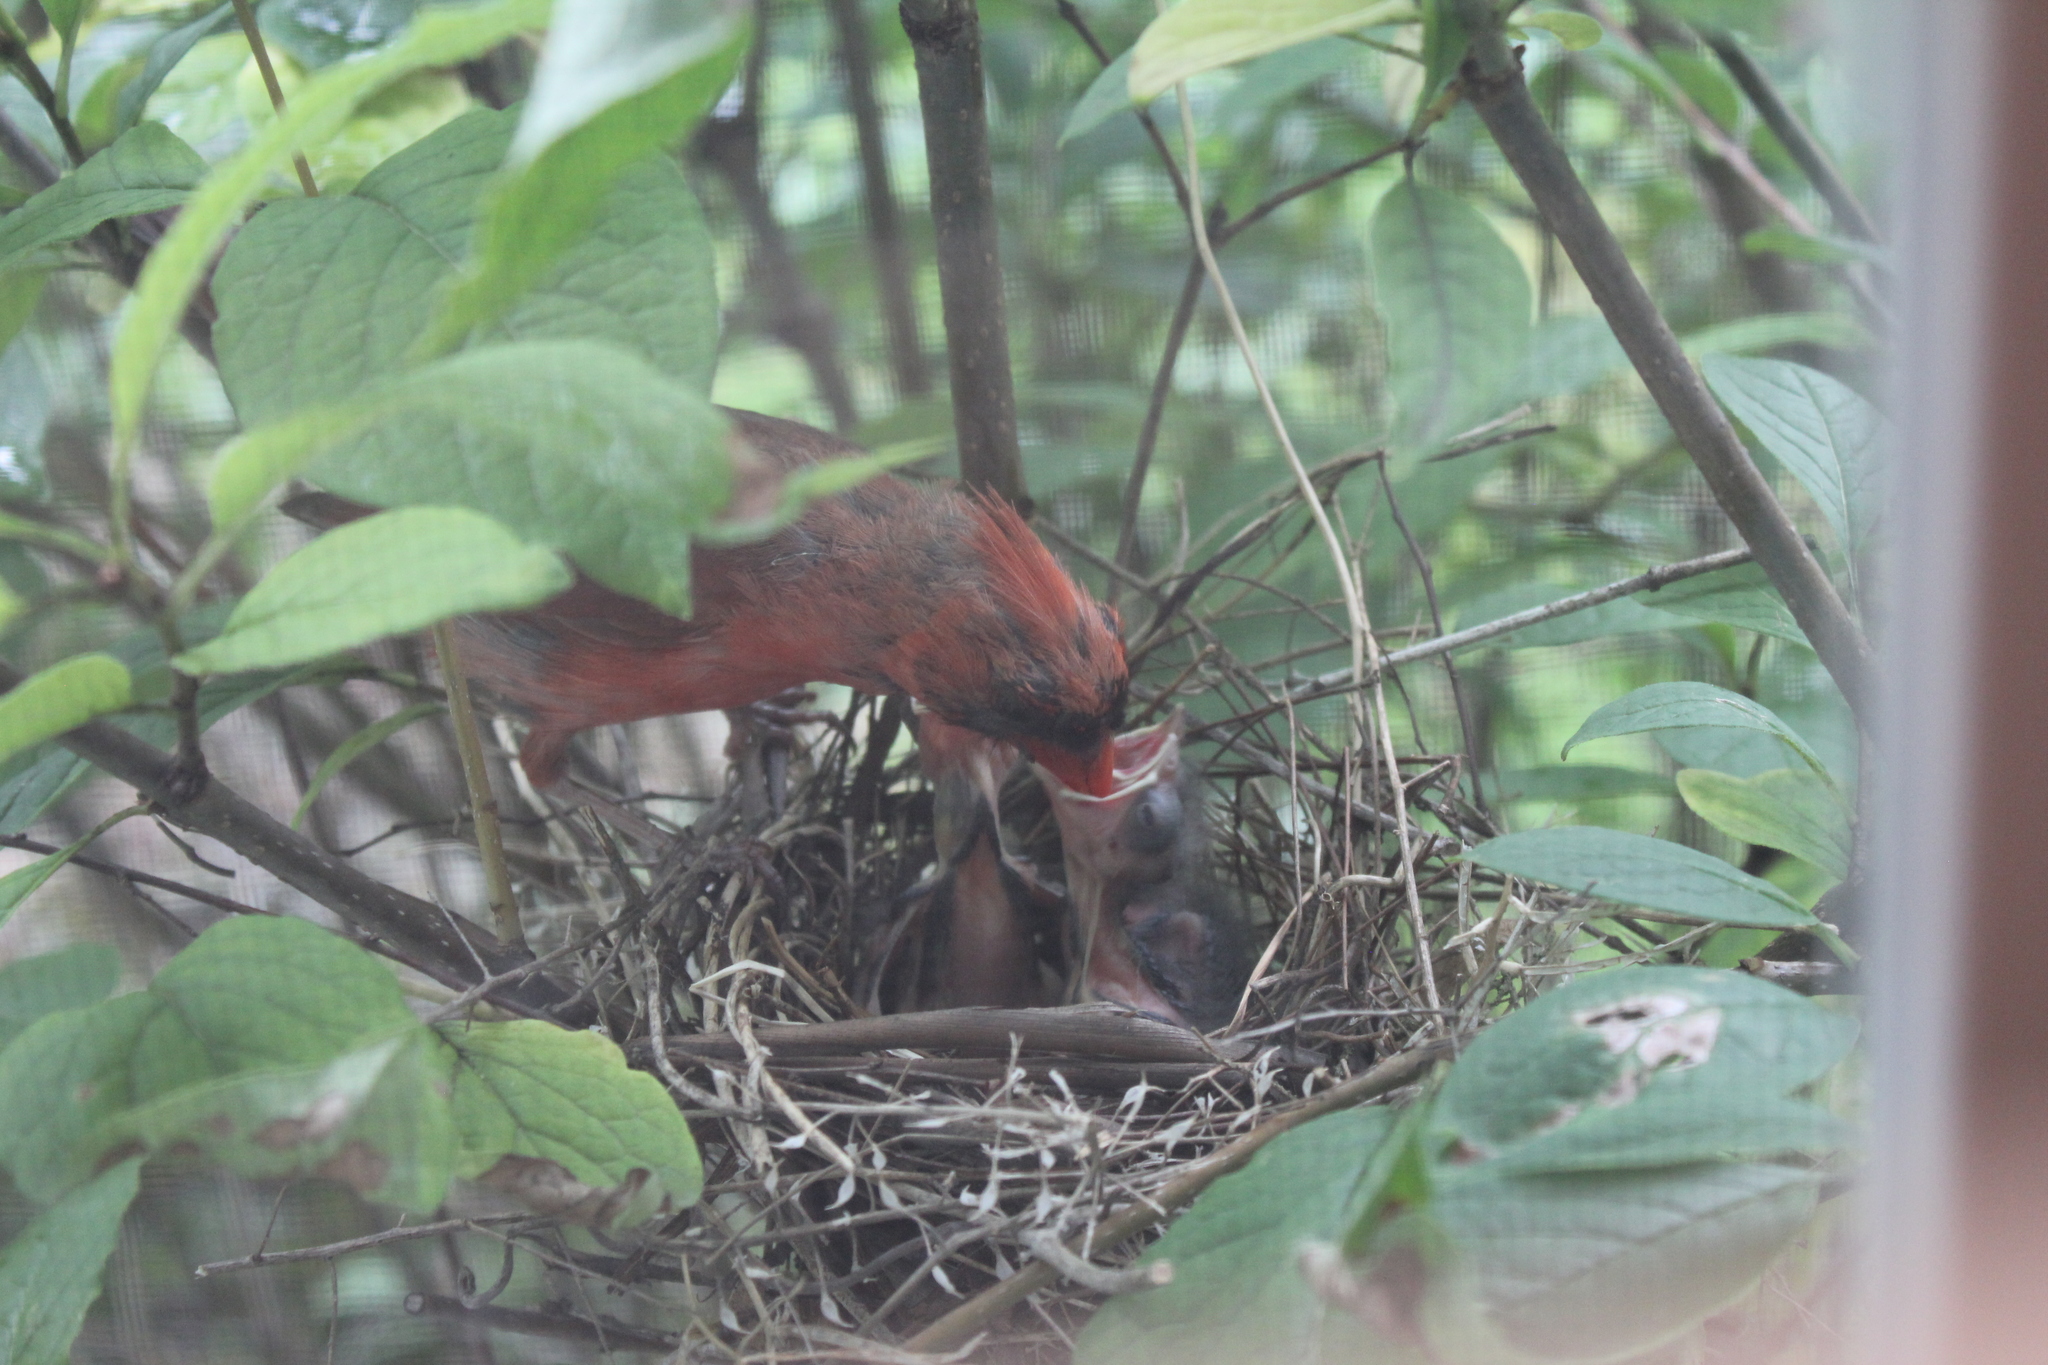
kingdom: Animalia
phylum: Chordata
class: Aves
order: Passeriformes
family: Cardinalidae
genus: Cardinalis
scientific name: Cardinalis cardinalis
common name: Northern cardinal
